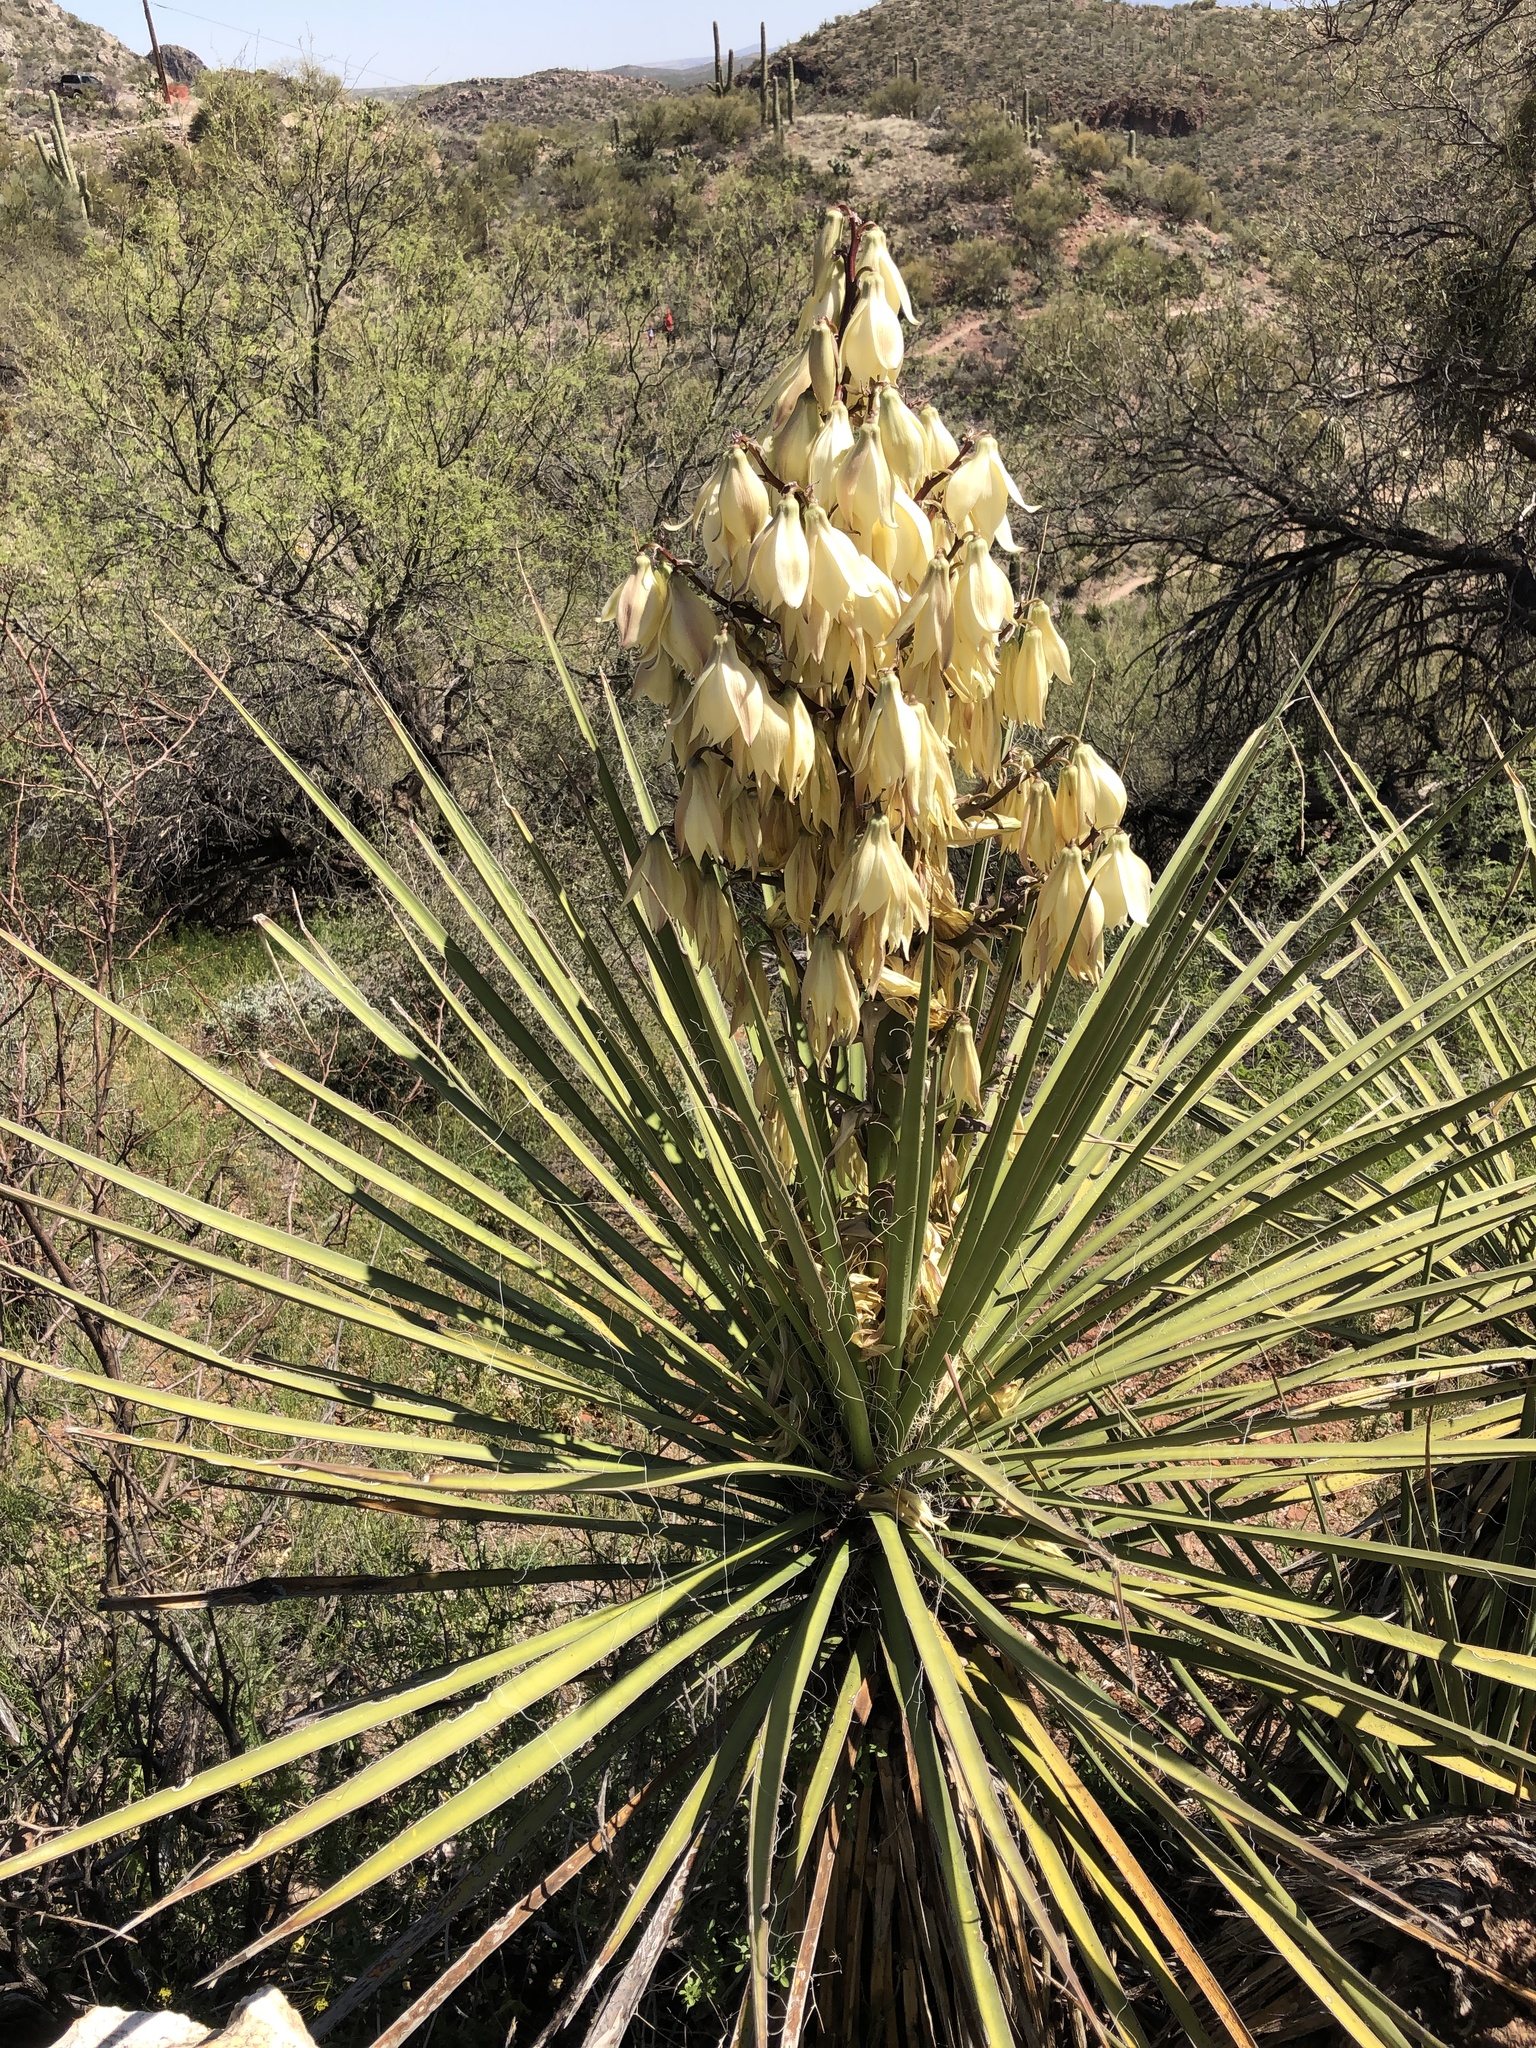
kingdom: Plantae
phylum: Tracheophyta
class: Liliopsida
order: Asparagales
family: Asparagaceae
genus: Yucca
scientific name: Yucca madrensis
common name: Hoary yucca
